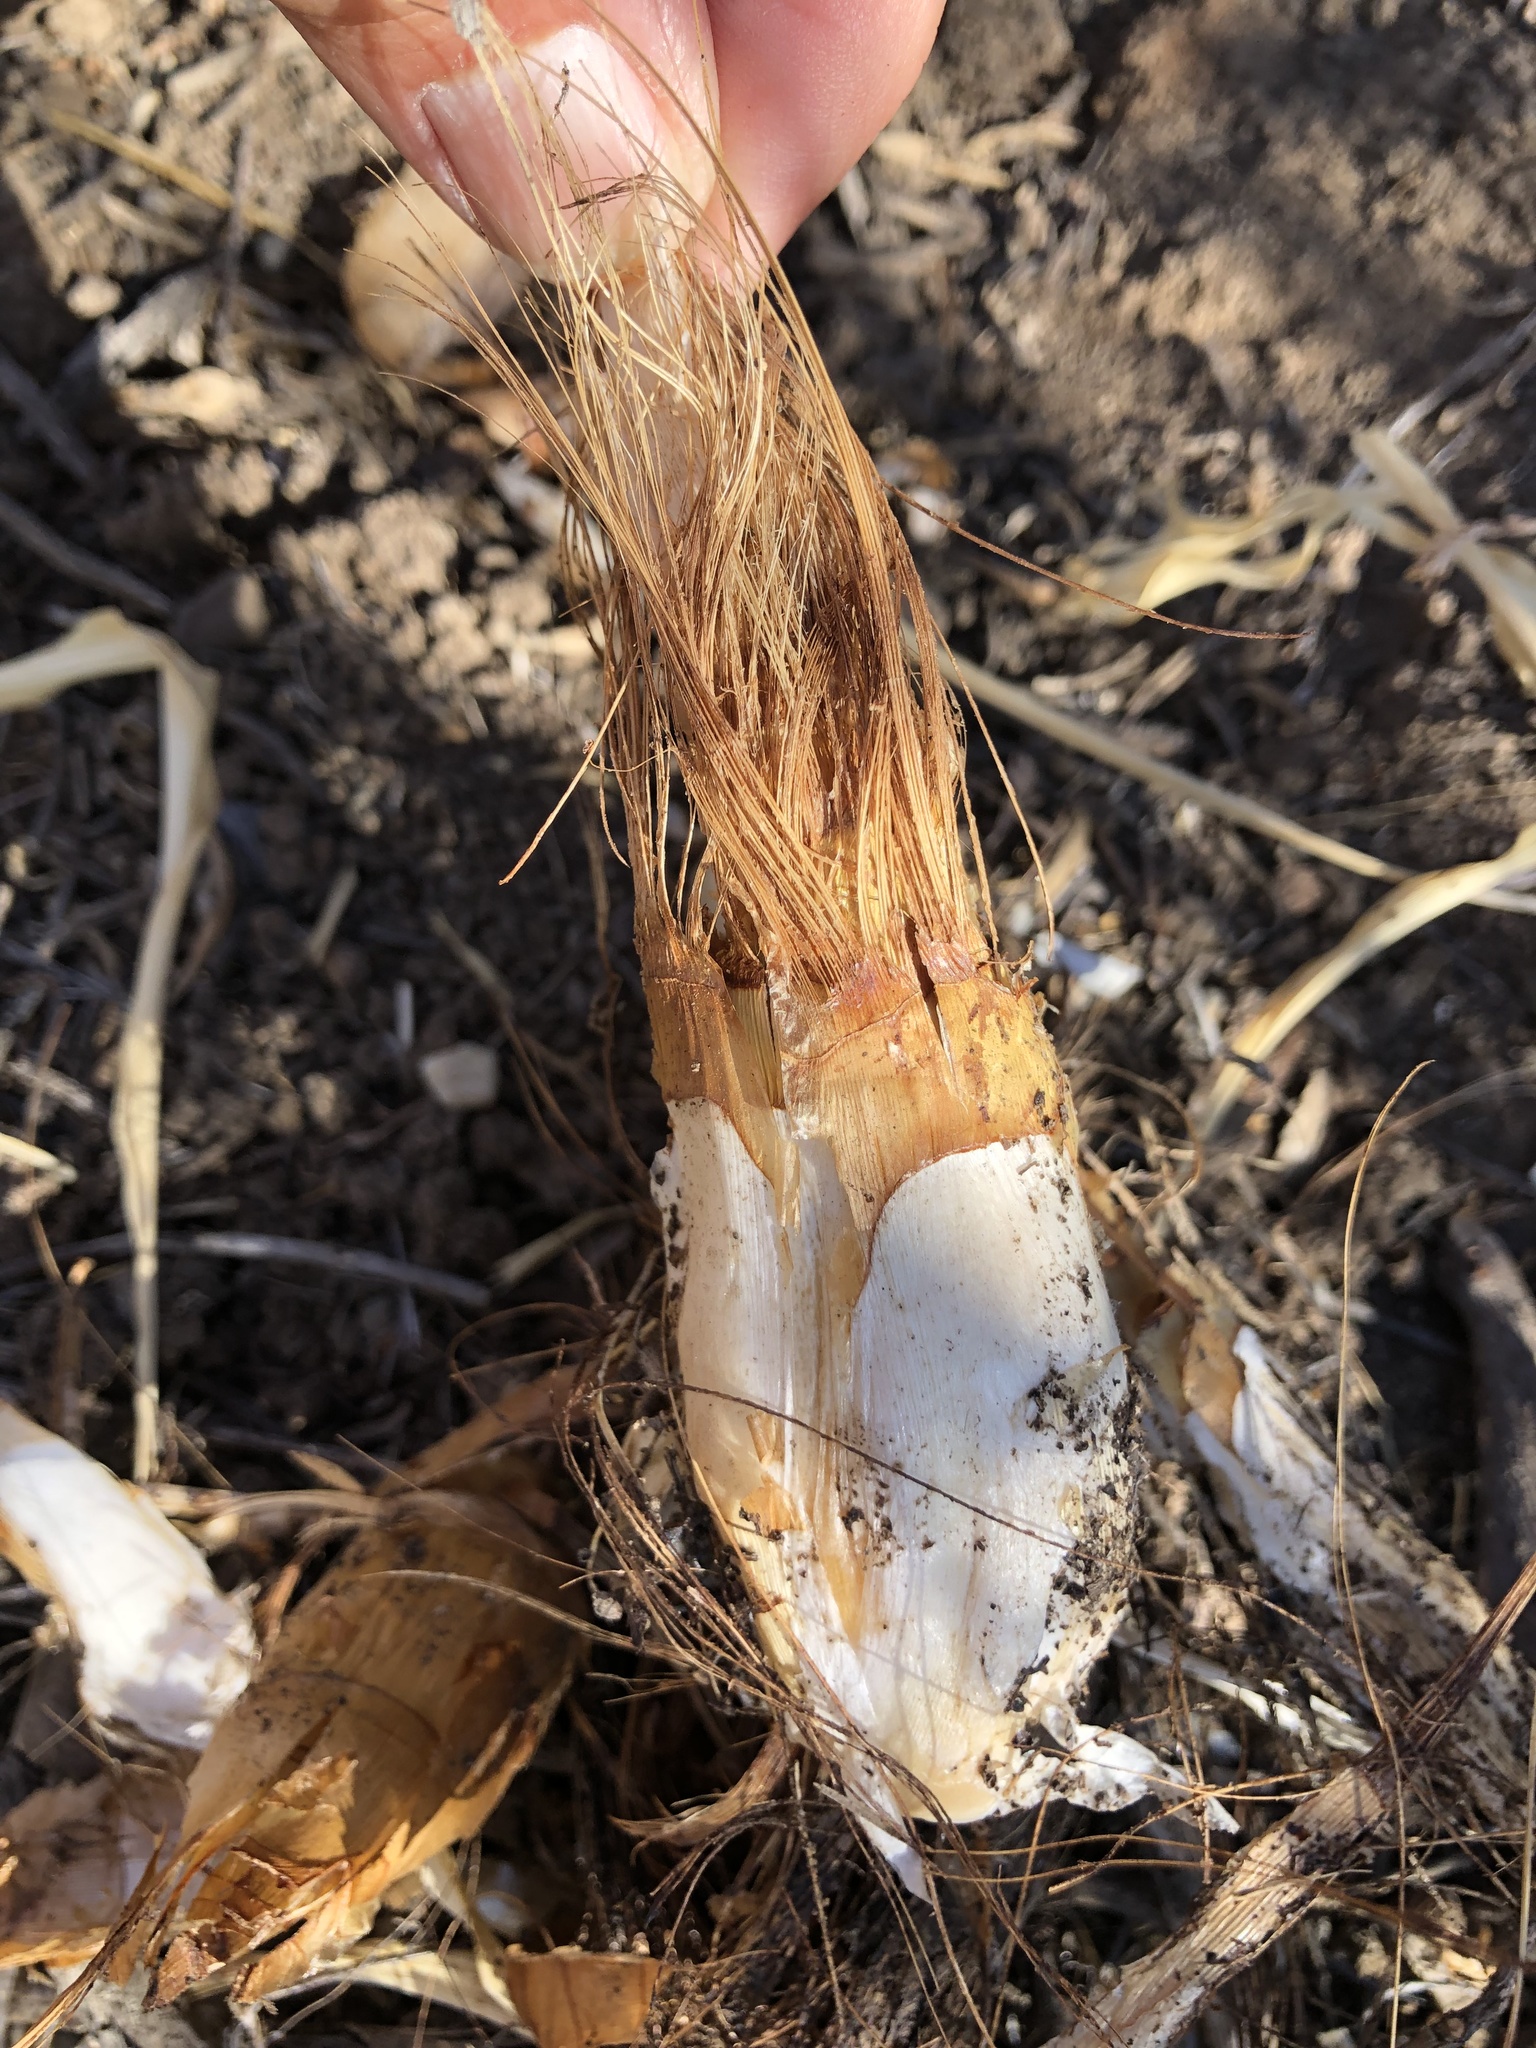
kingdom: Plantae
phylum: Tracheophyta
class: Liliopsida
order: Asparagales
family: Asparagaceae
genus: Chlorogalum
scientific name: Chlorogalum pomeridianum
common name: Amole
